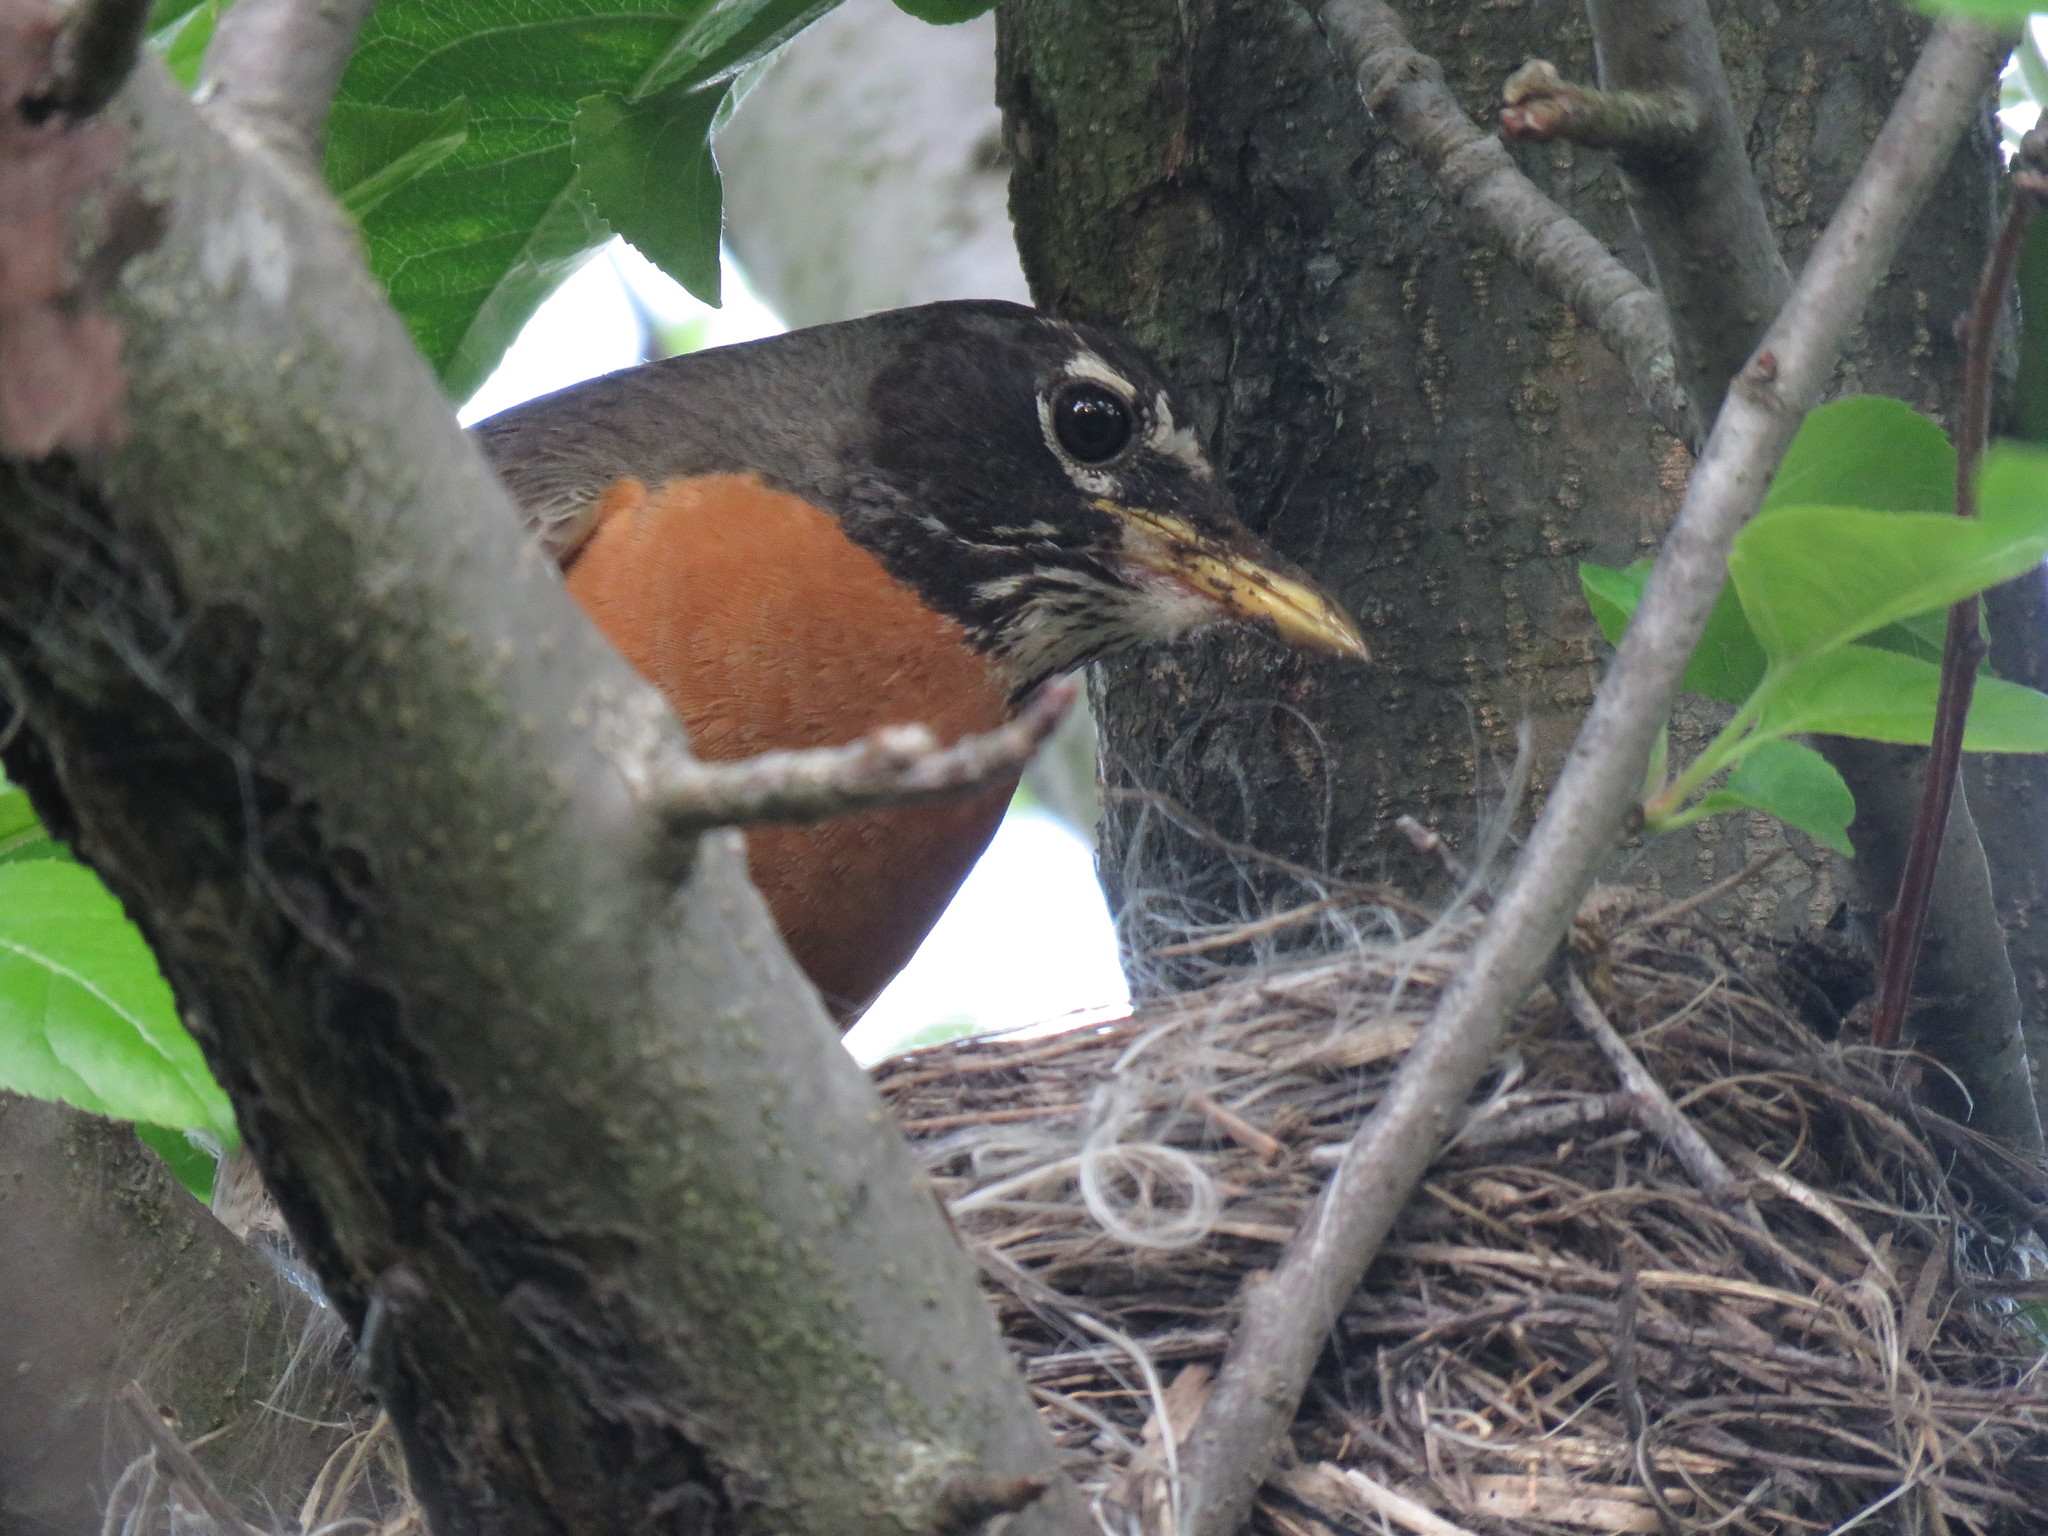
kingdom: Animalia
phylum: Chordata
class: Aves
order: Passeriformes
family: Turdidae
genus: Turdus
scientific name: Turdus migratorius
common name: American robin
